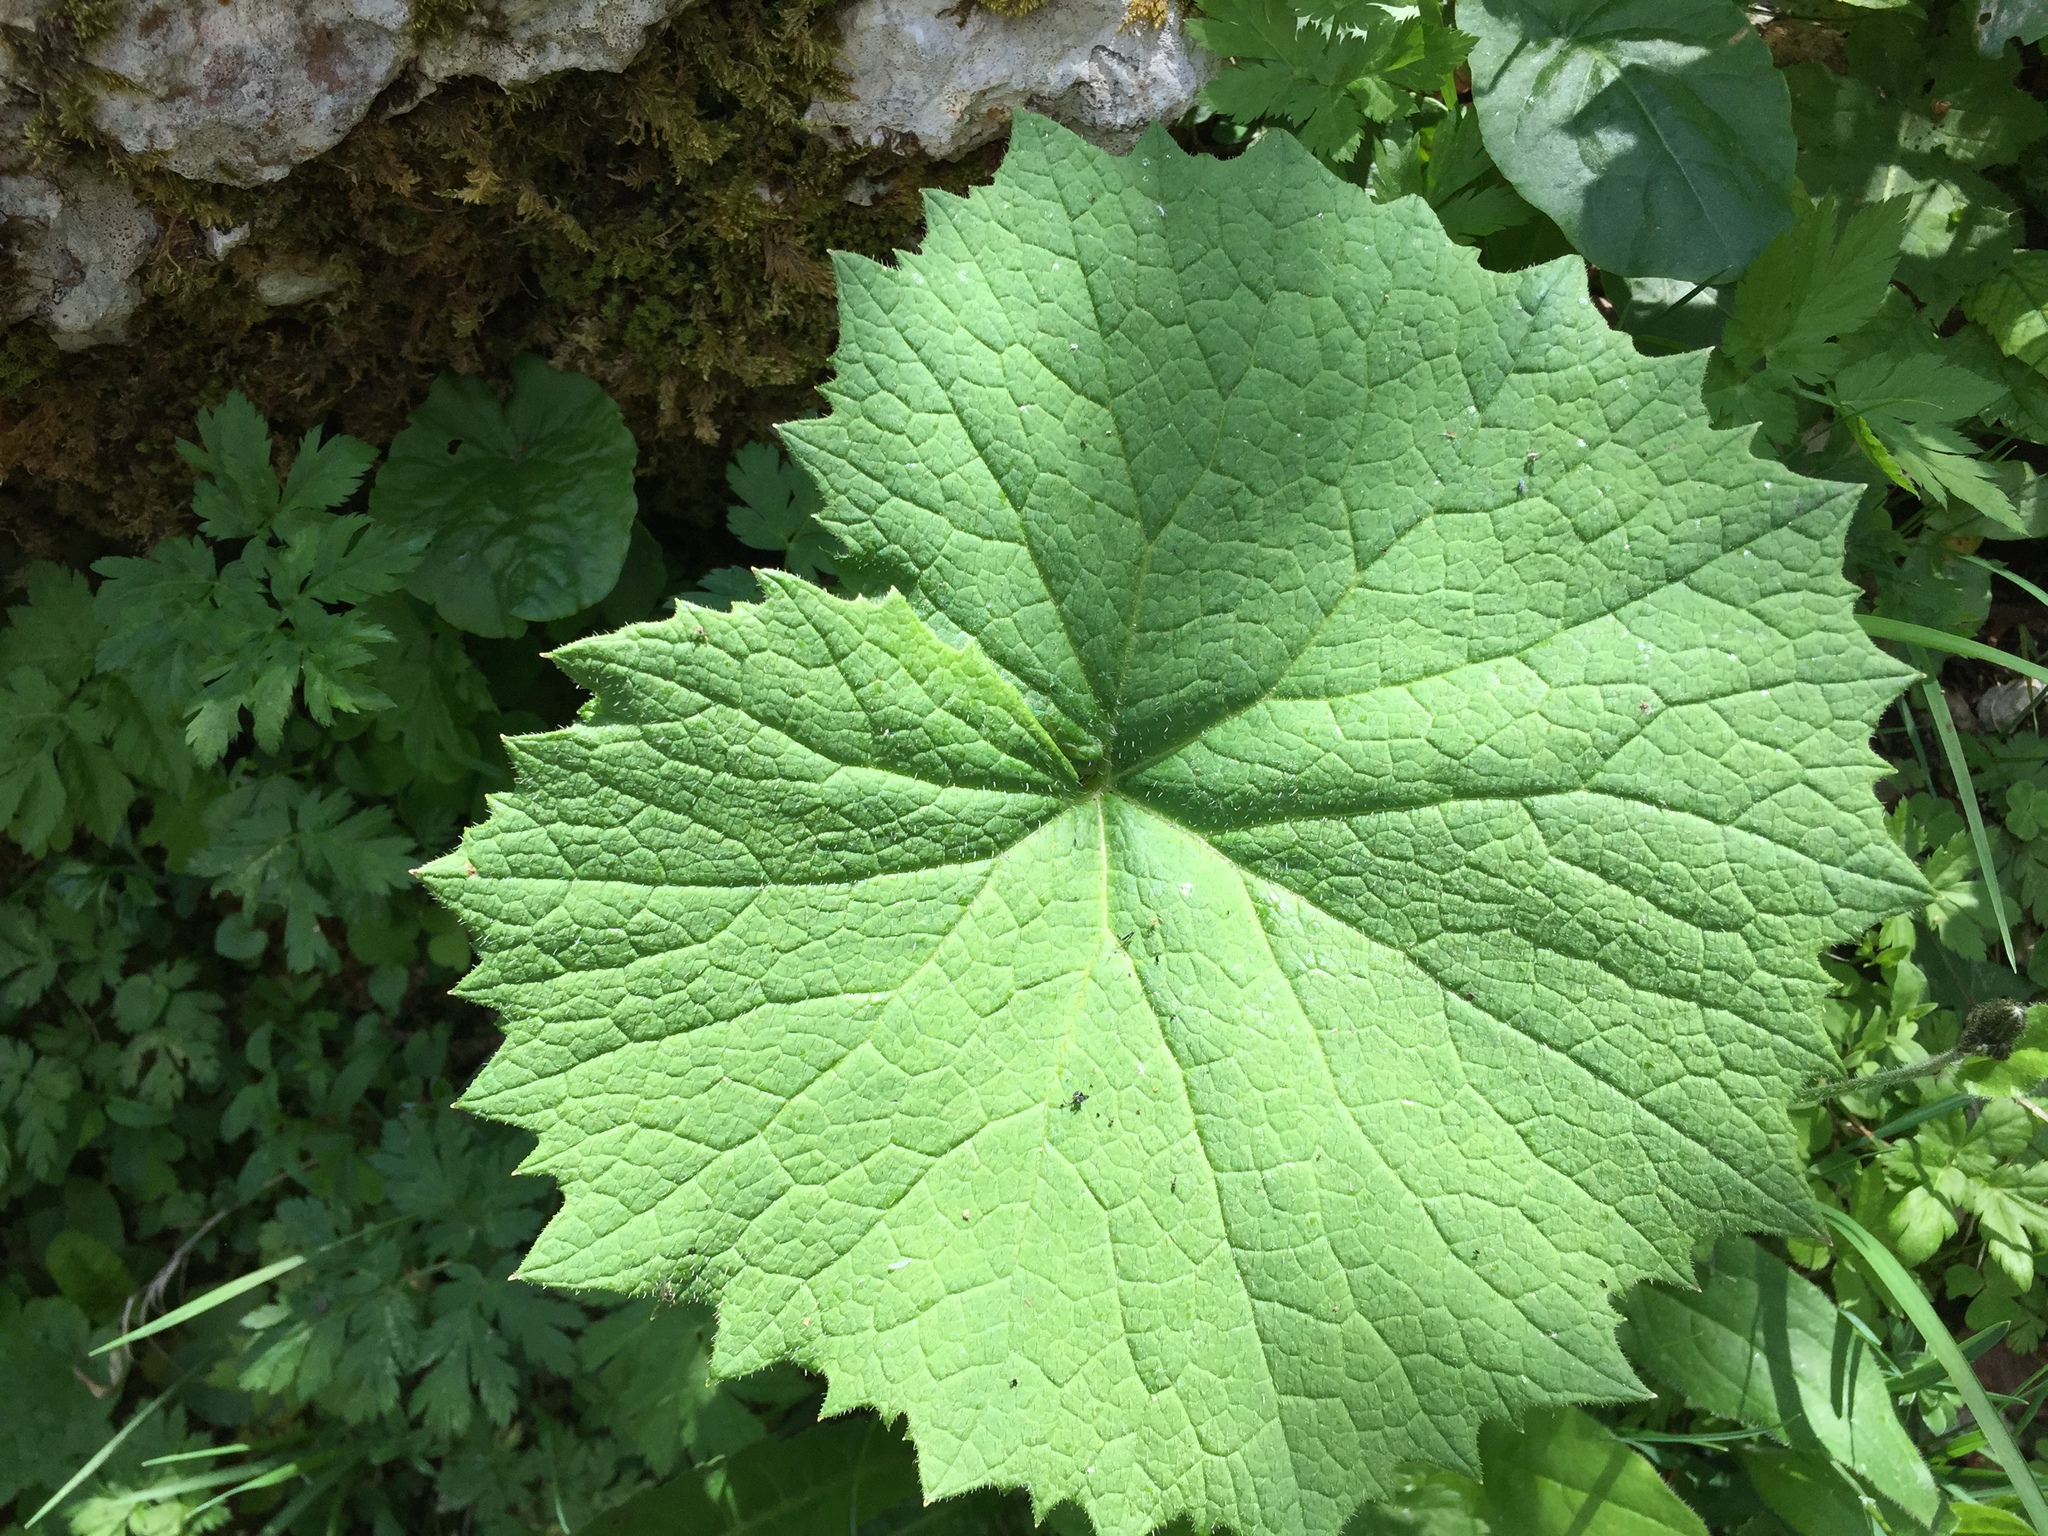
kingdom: Plantae
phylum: Tracheophyta
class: Magnoliopsida
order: Asterales
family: Asteraceae
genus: Petasites
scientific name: Petasites albus
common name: White butterbur
